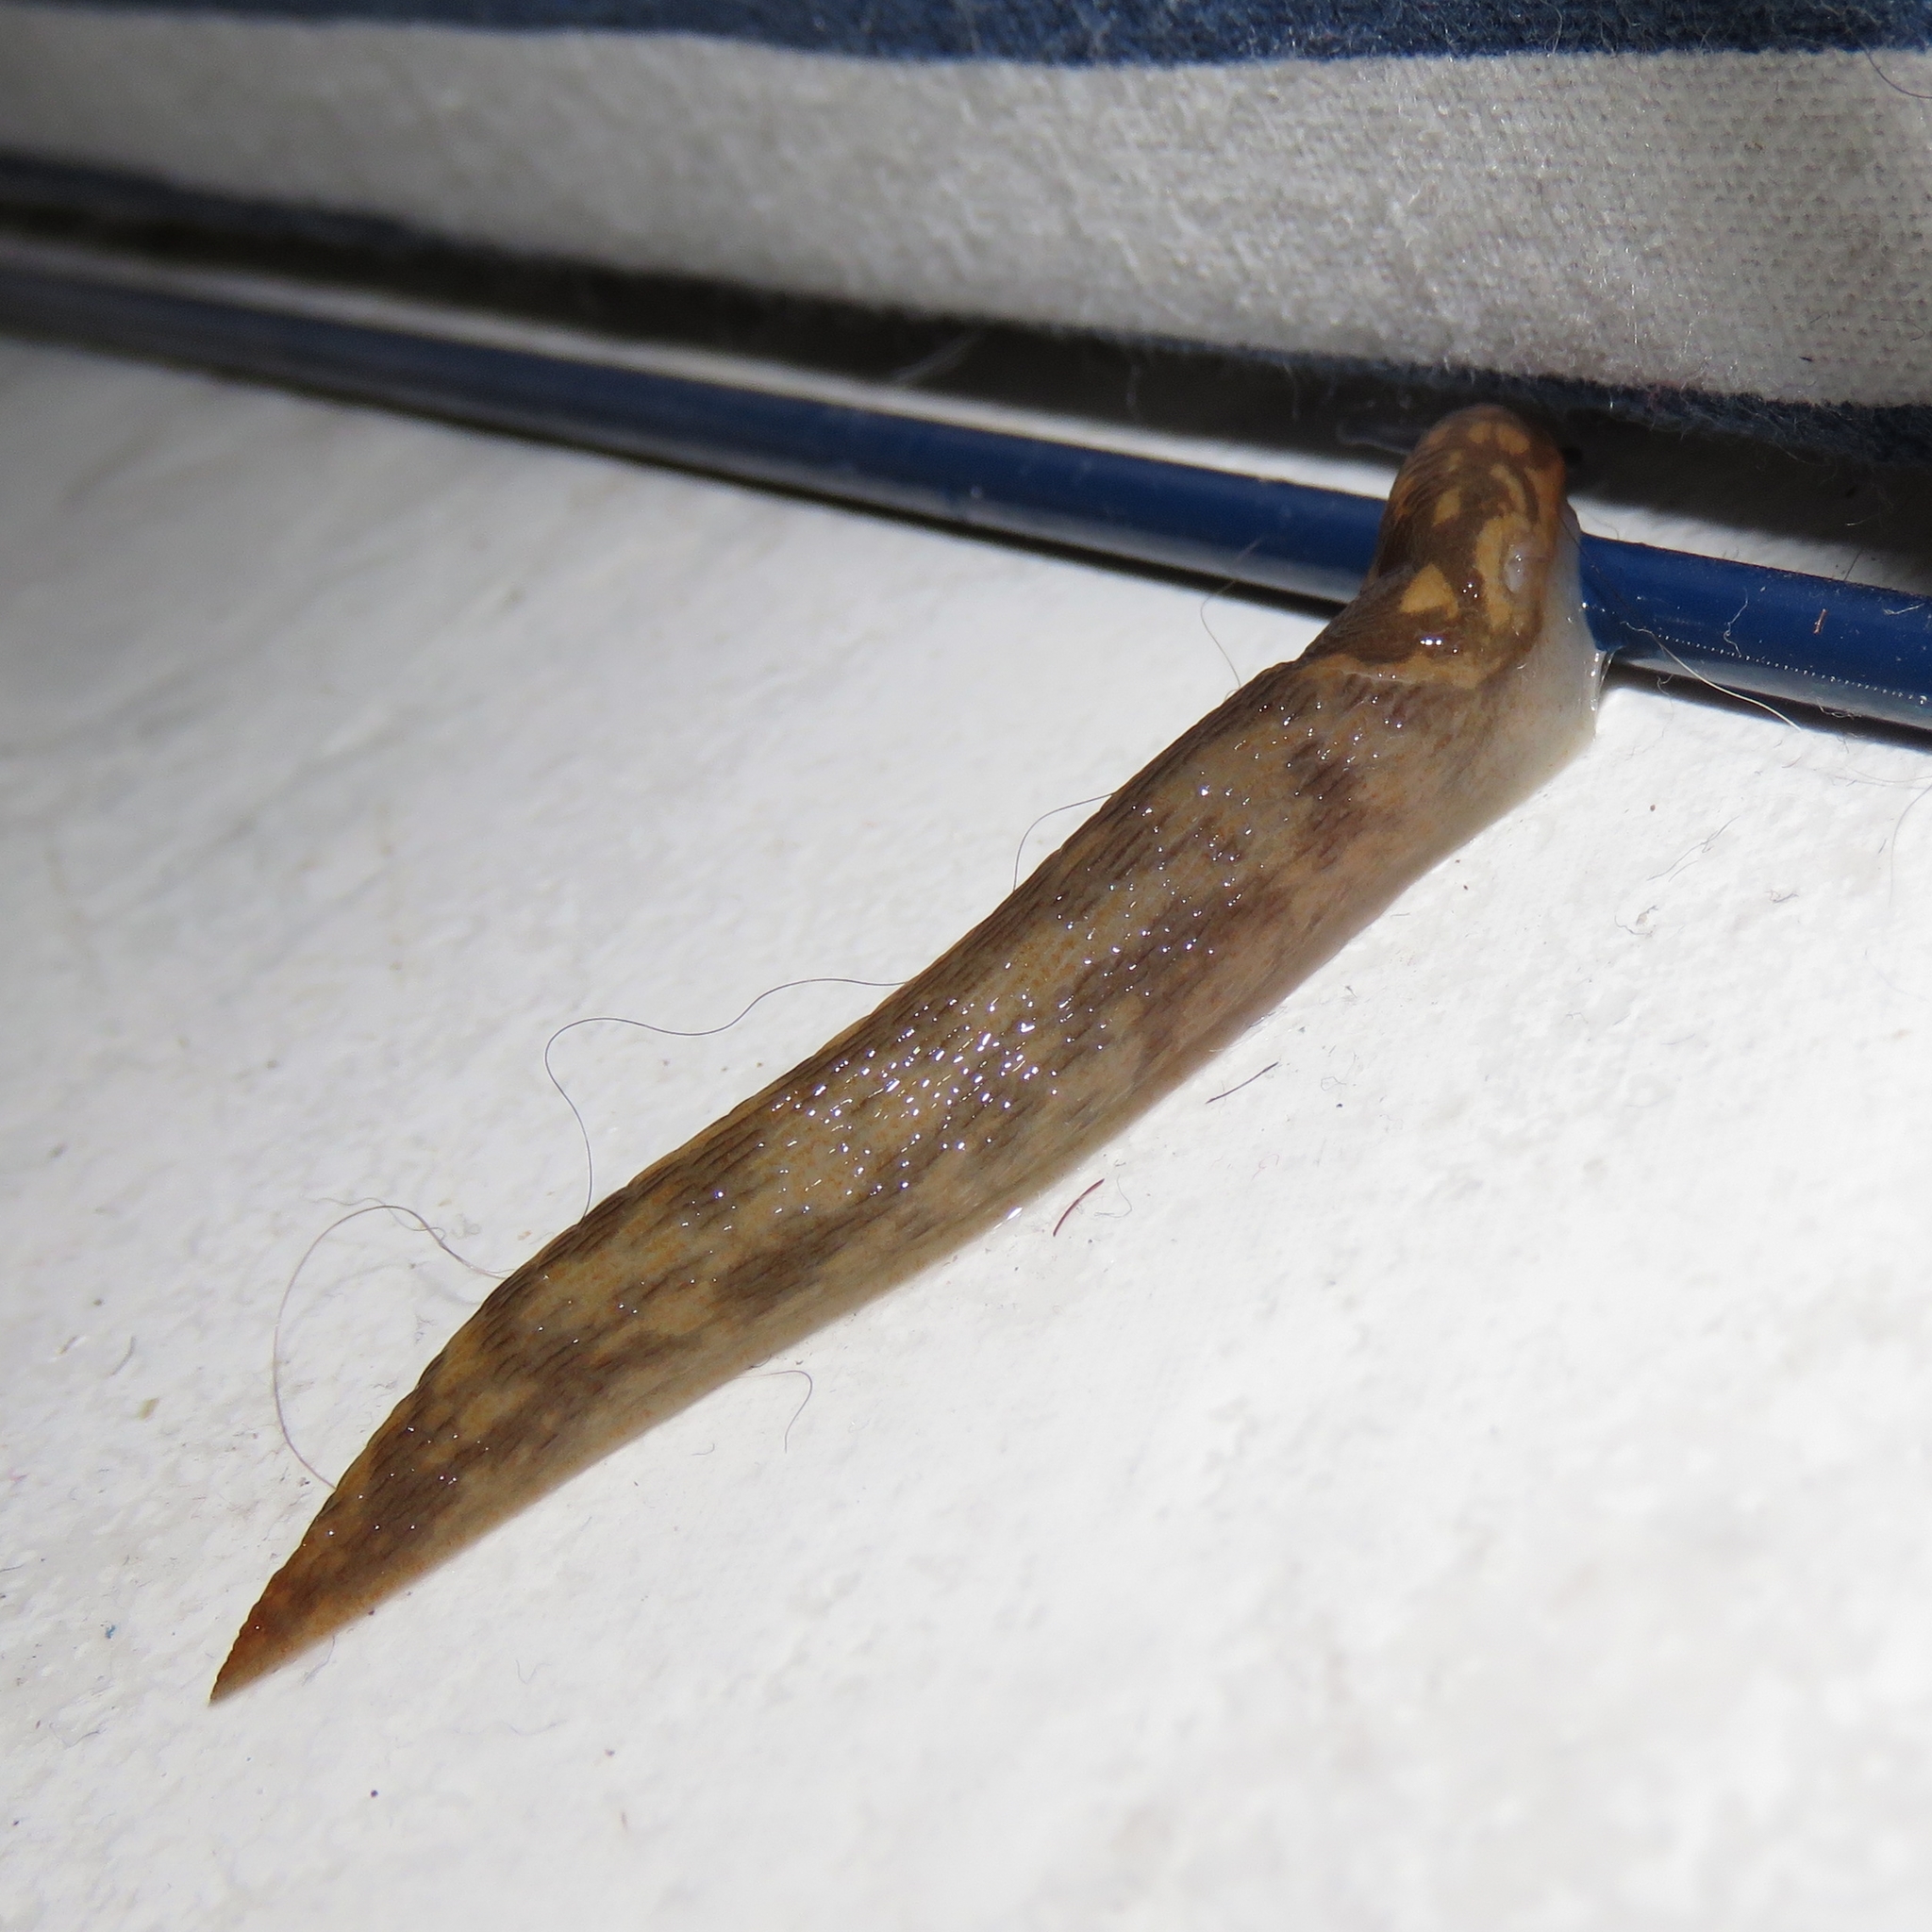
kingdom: Animalia
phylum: Mollusca
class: Gastropoda
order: Stylommatophora
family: Limacidae
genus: Limacus
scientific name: Limacus flavus
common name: Yellow gardenslug
